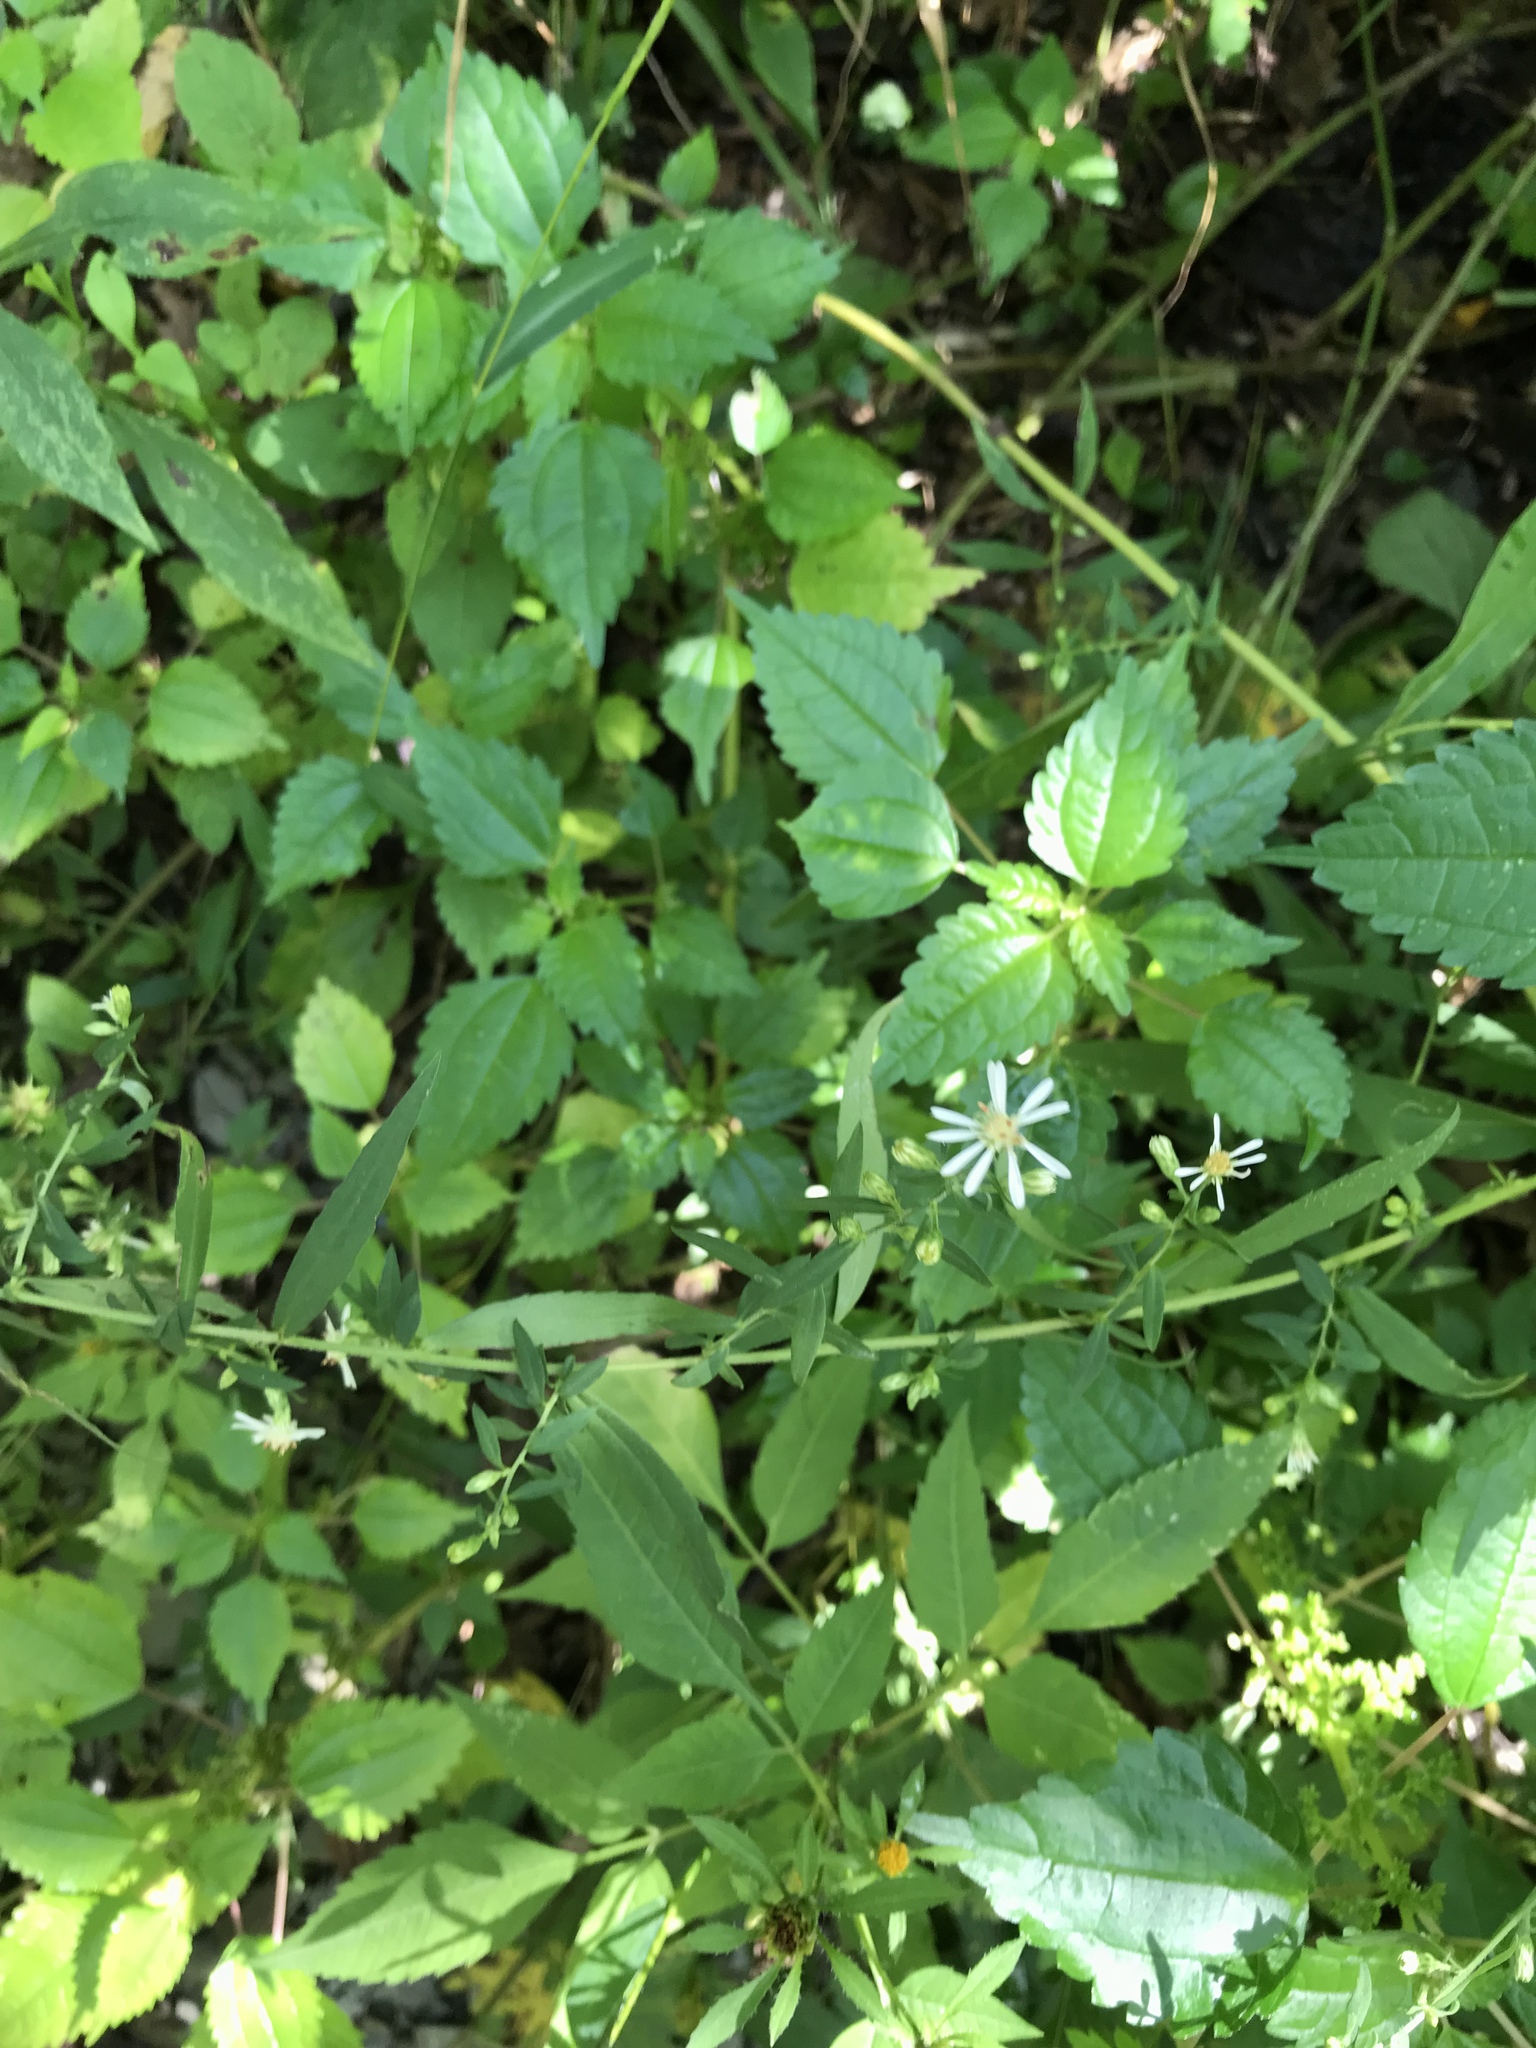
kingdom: Plantae
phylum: Tracheophyta
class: Magnoliopsida
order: Asterales
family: Asteraceae
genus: Symphyotrichum
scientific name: Symphyotrichum lateriflorum
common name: Calico aster
